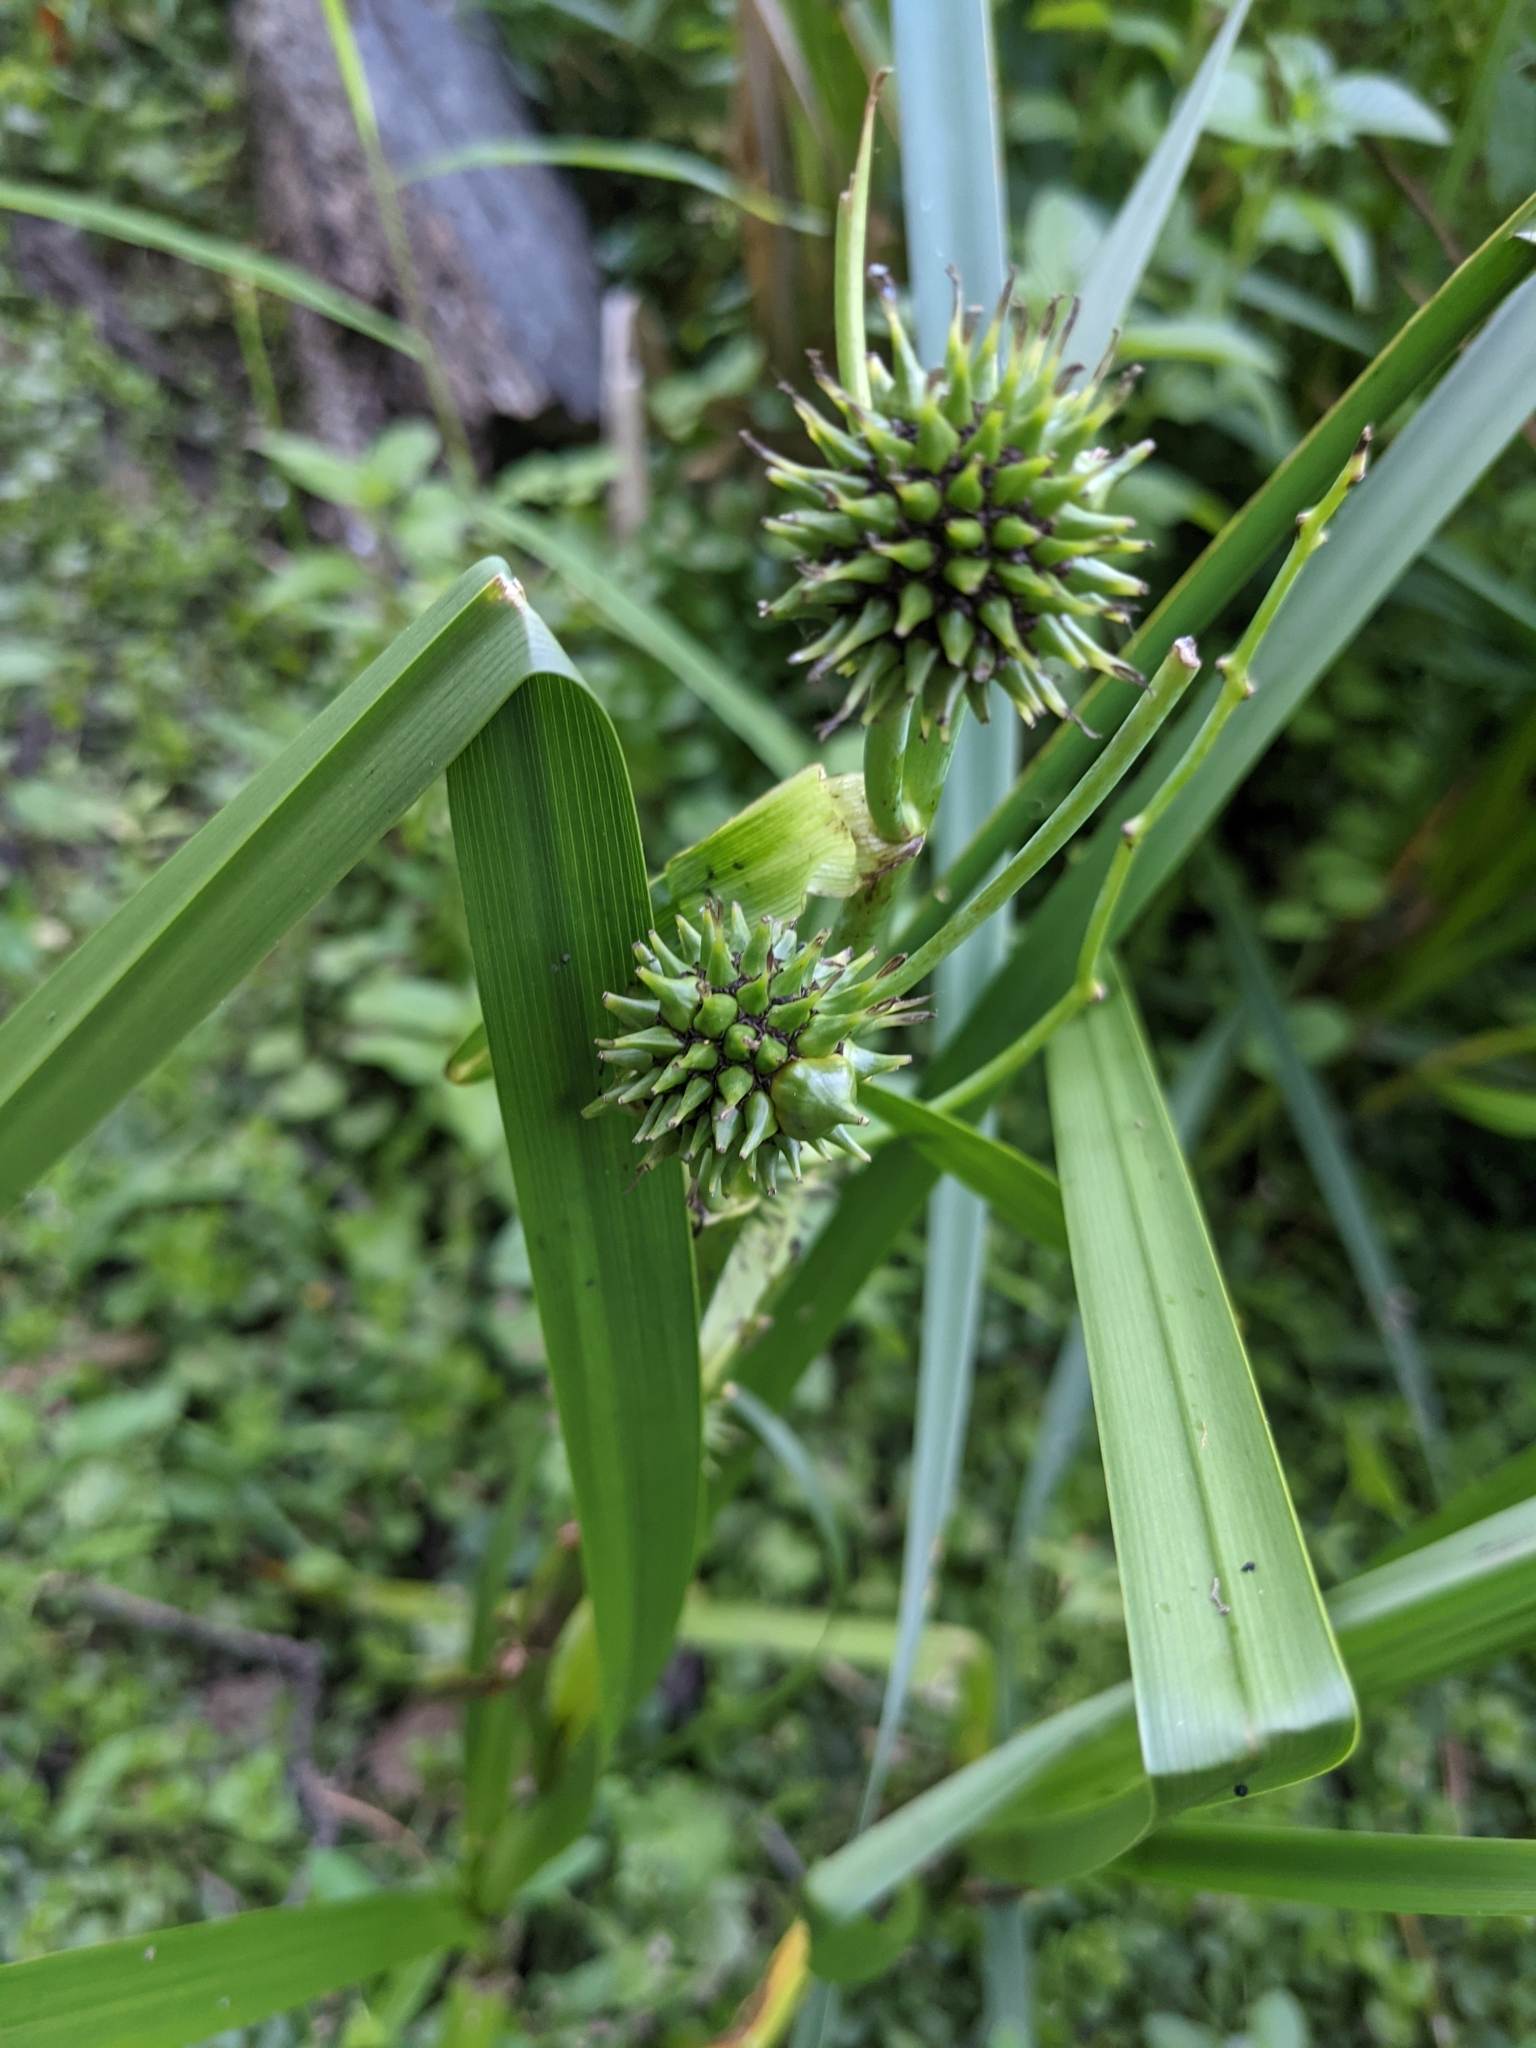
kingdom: Plantae
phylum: Tracheophyta
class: Liliopsida
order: Poales
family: Typhaceae
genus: Sparganium
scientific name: Sparganium eurycarpum
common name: Broad-fruited burreed
